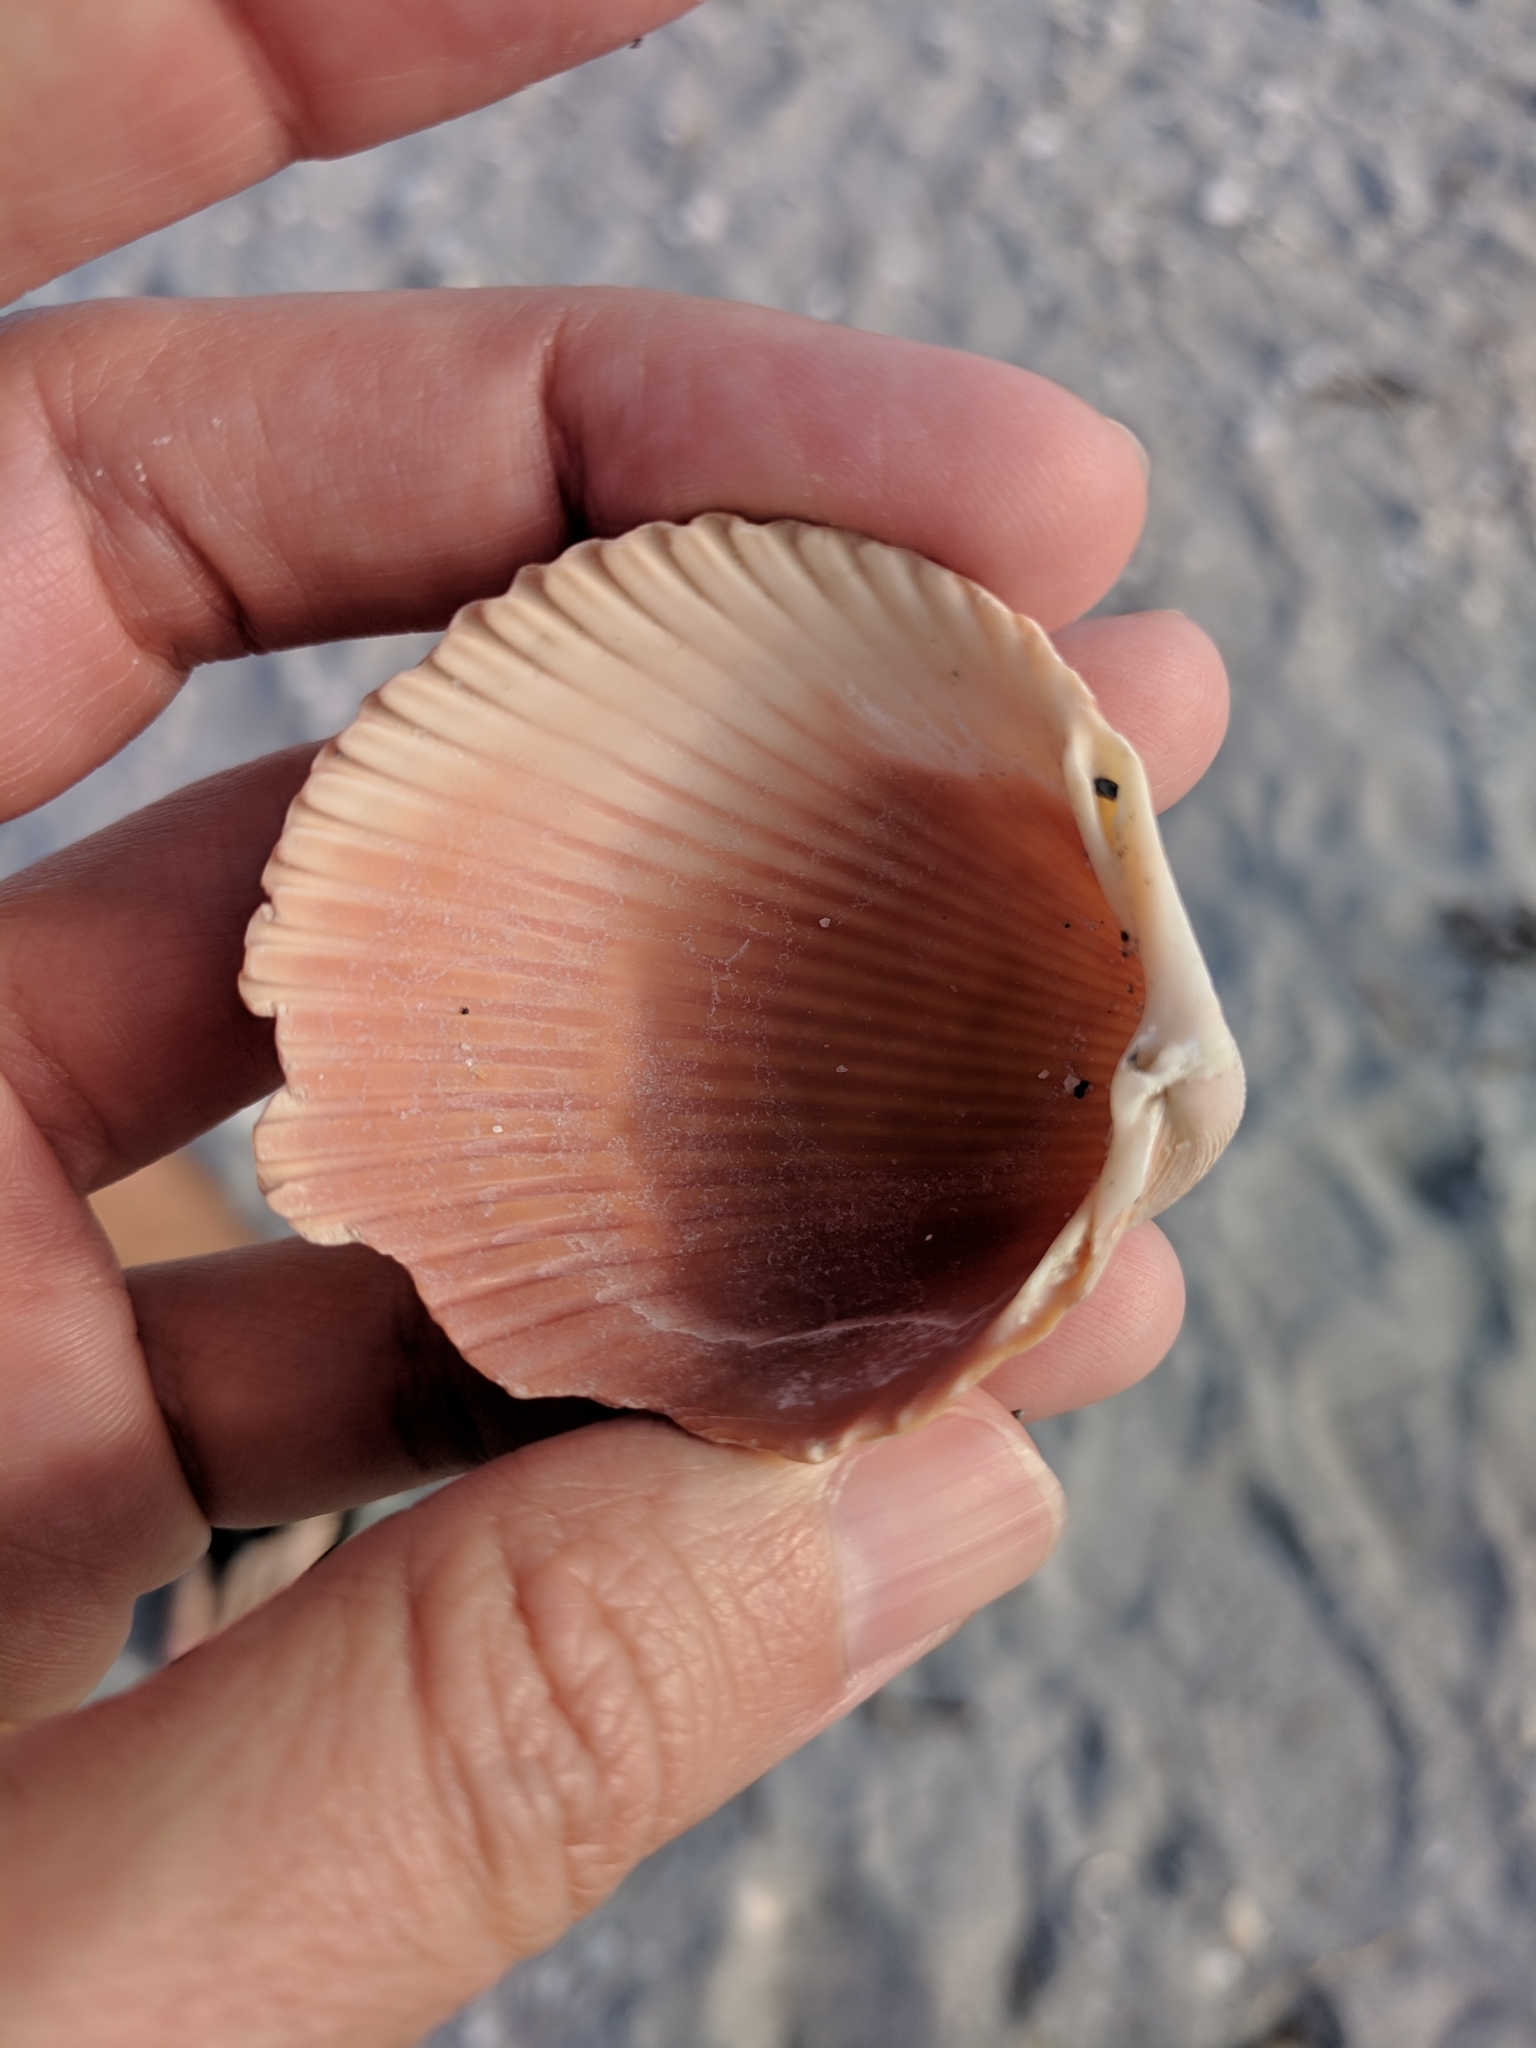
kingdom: Animalia
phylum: Mollusca
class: Bivalvia
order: Cardiida
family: Cardiidae
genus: Dinocardium
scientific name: Dinocardium robustum
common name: Atlantic giant cockle
